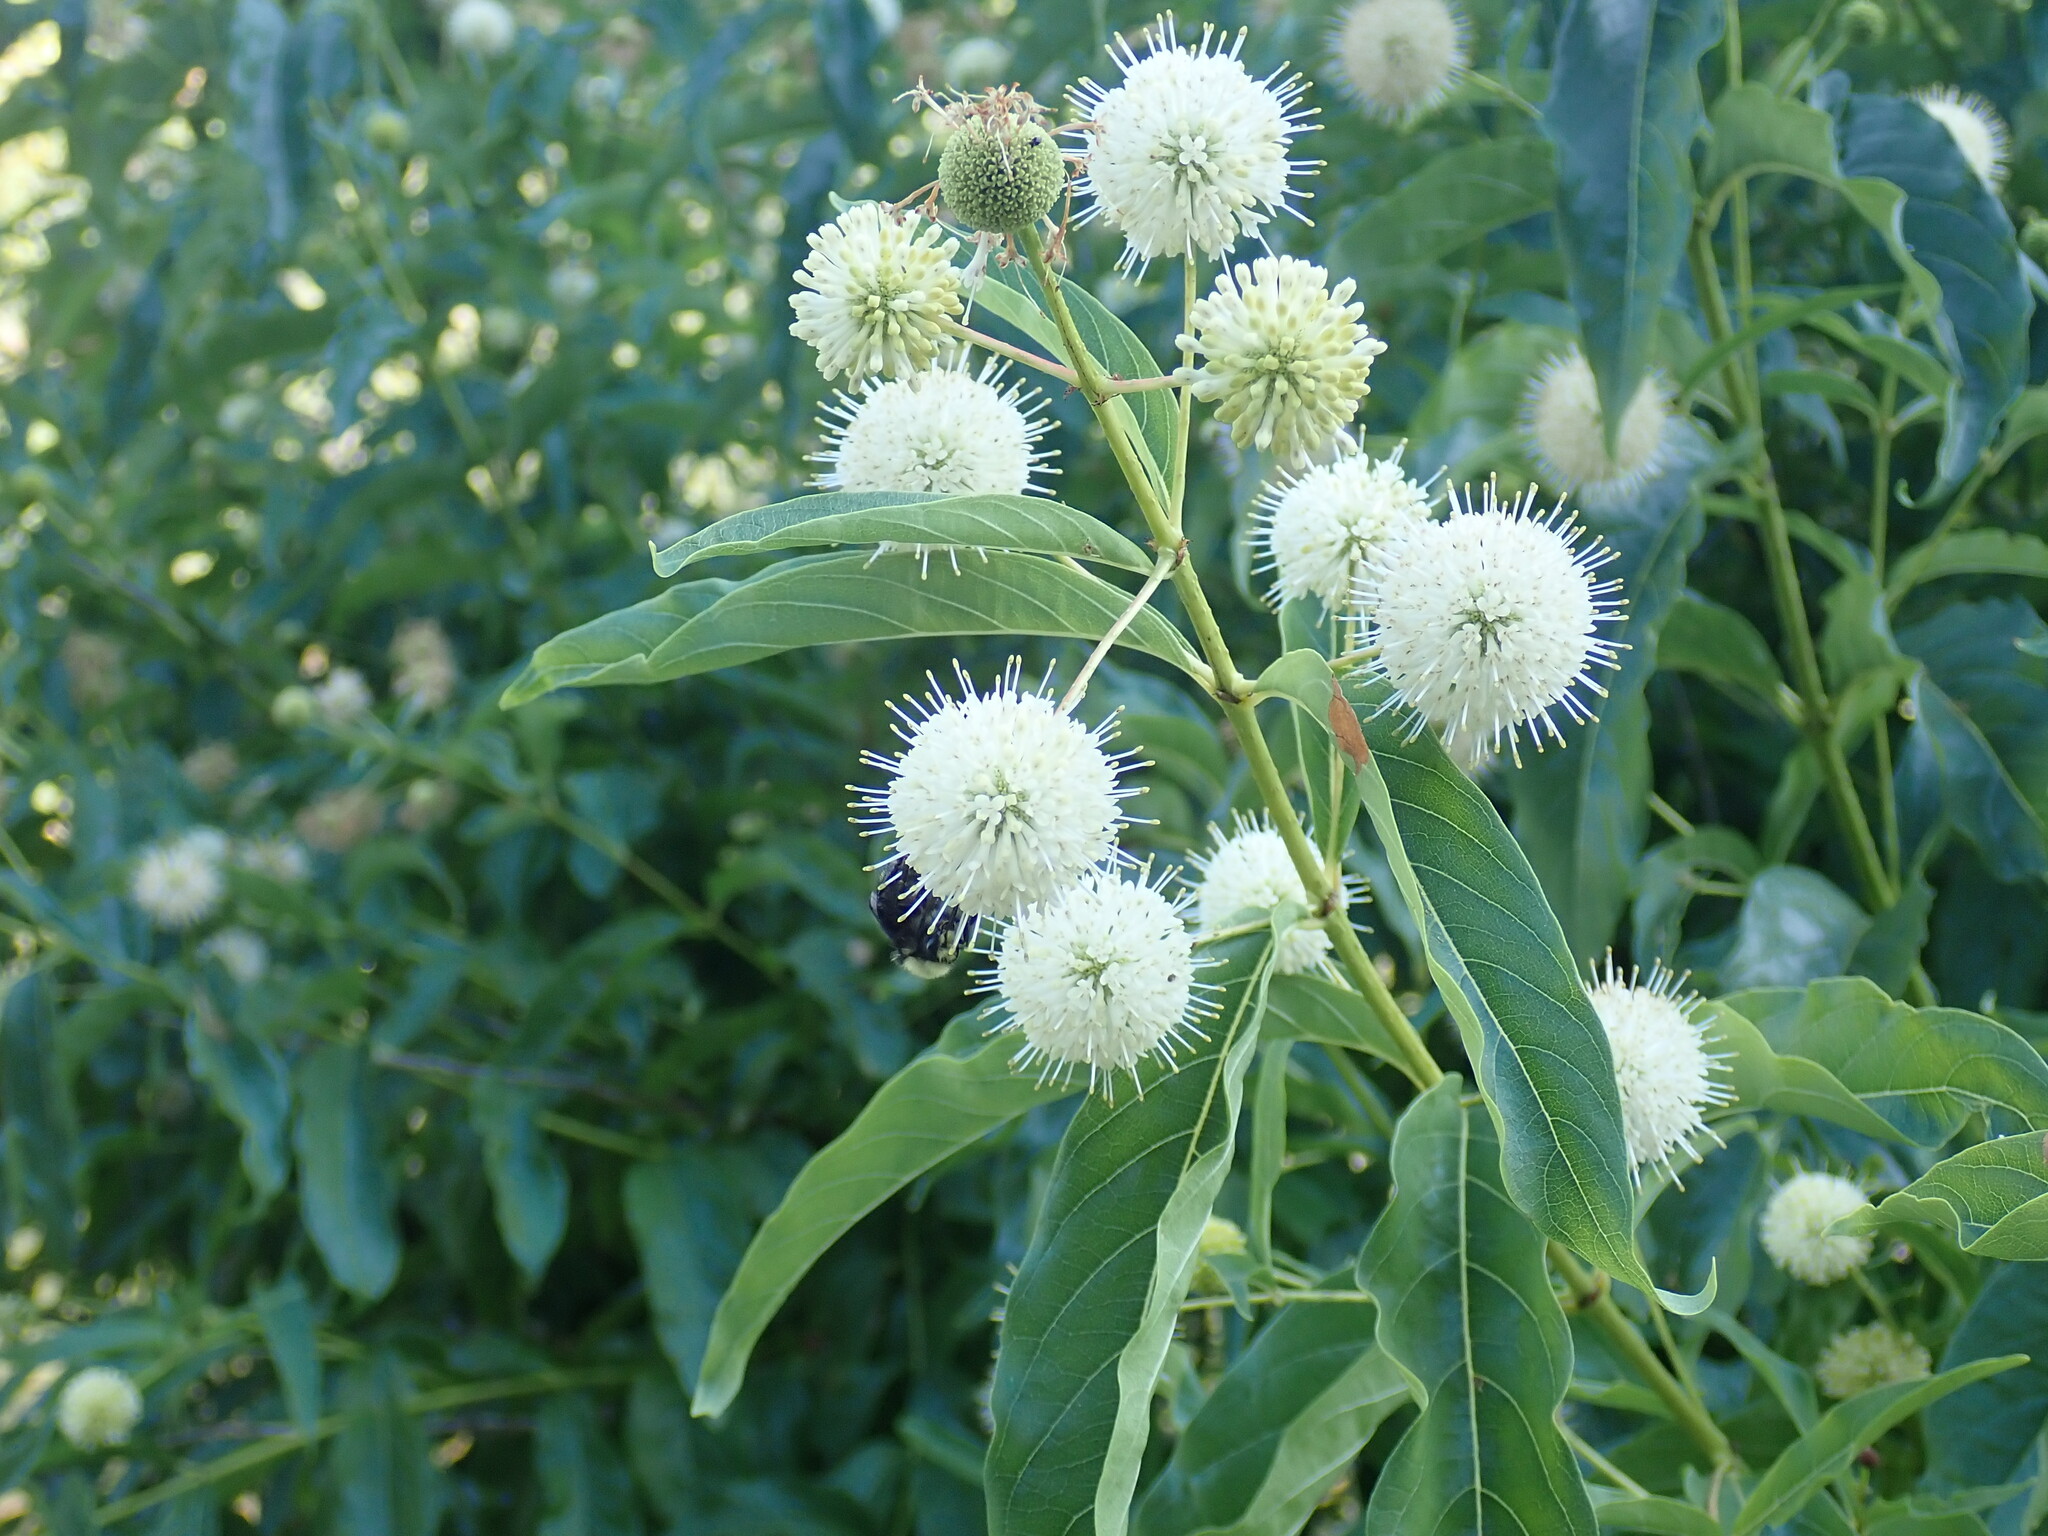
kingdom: Plantae
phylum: Tracheophyta
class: Magnoliopsida
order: Gentianales
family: Rubiaceae
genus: Cephalanthus
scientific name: Cephalanthus occidentalis
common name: Button-willow
